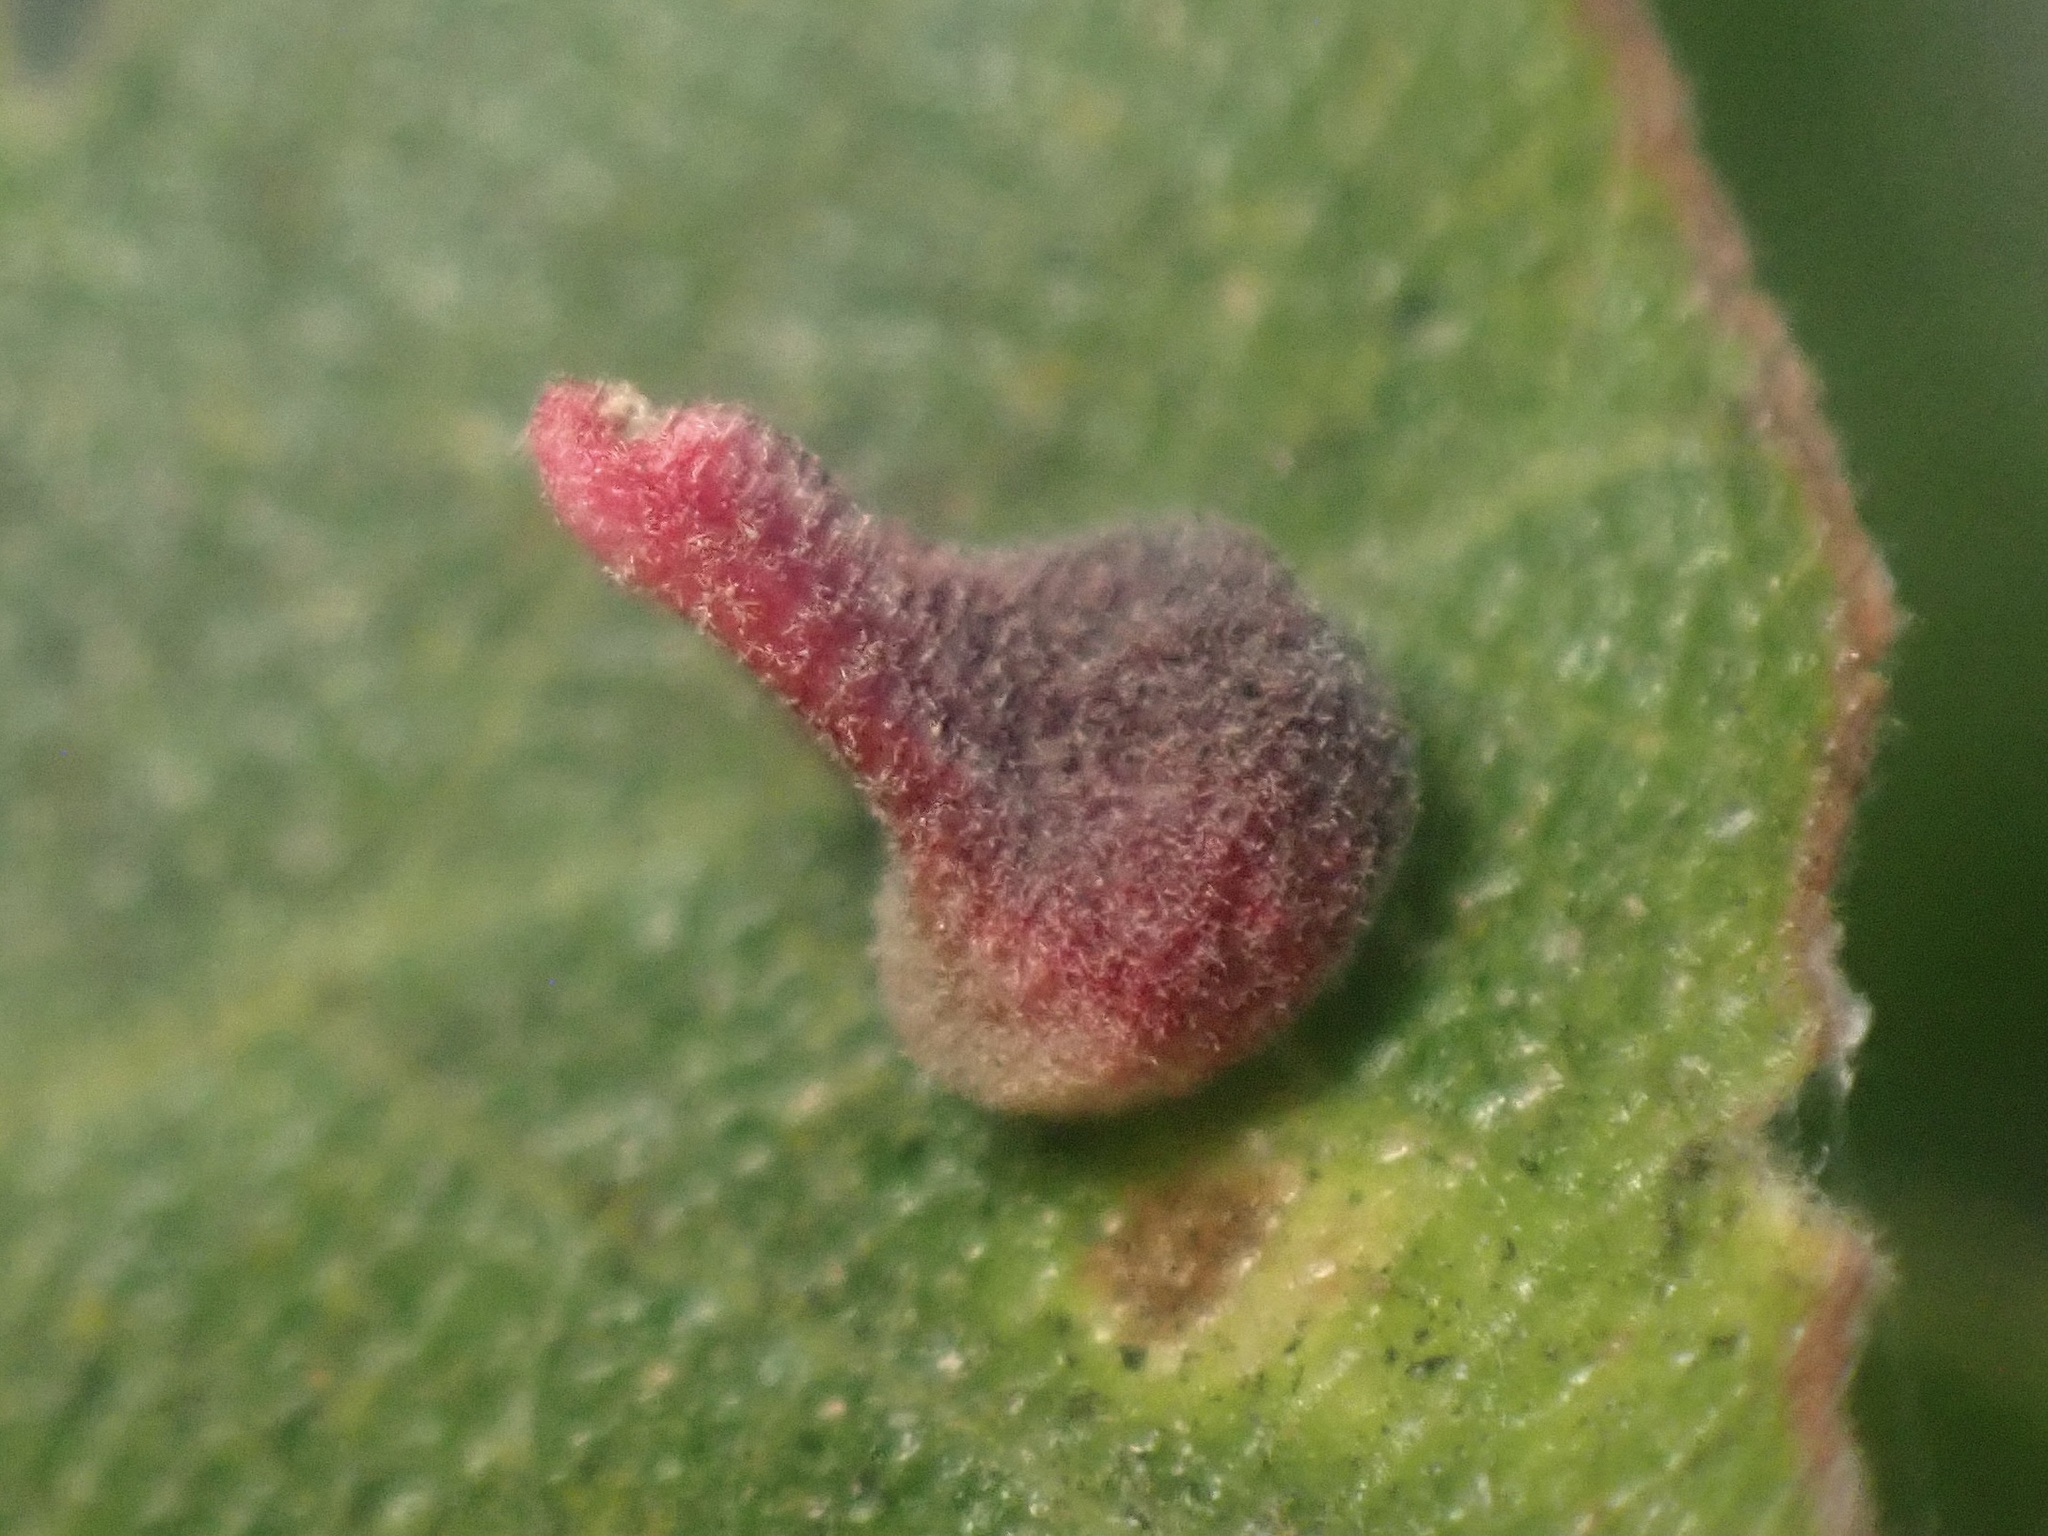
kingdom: Animalia
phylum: Arthropoda
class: Insecta
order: Hymenoptera
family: Cynipidae
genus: Andricus
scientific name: Andricus
